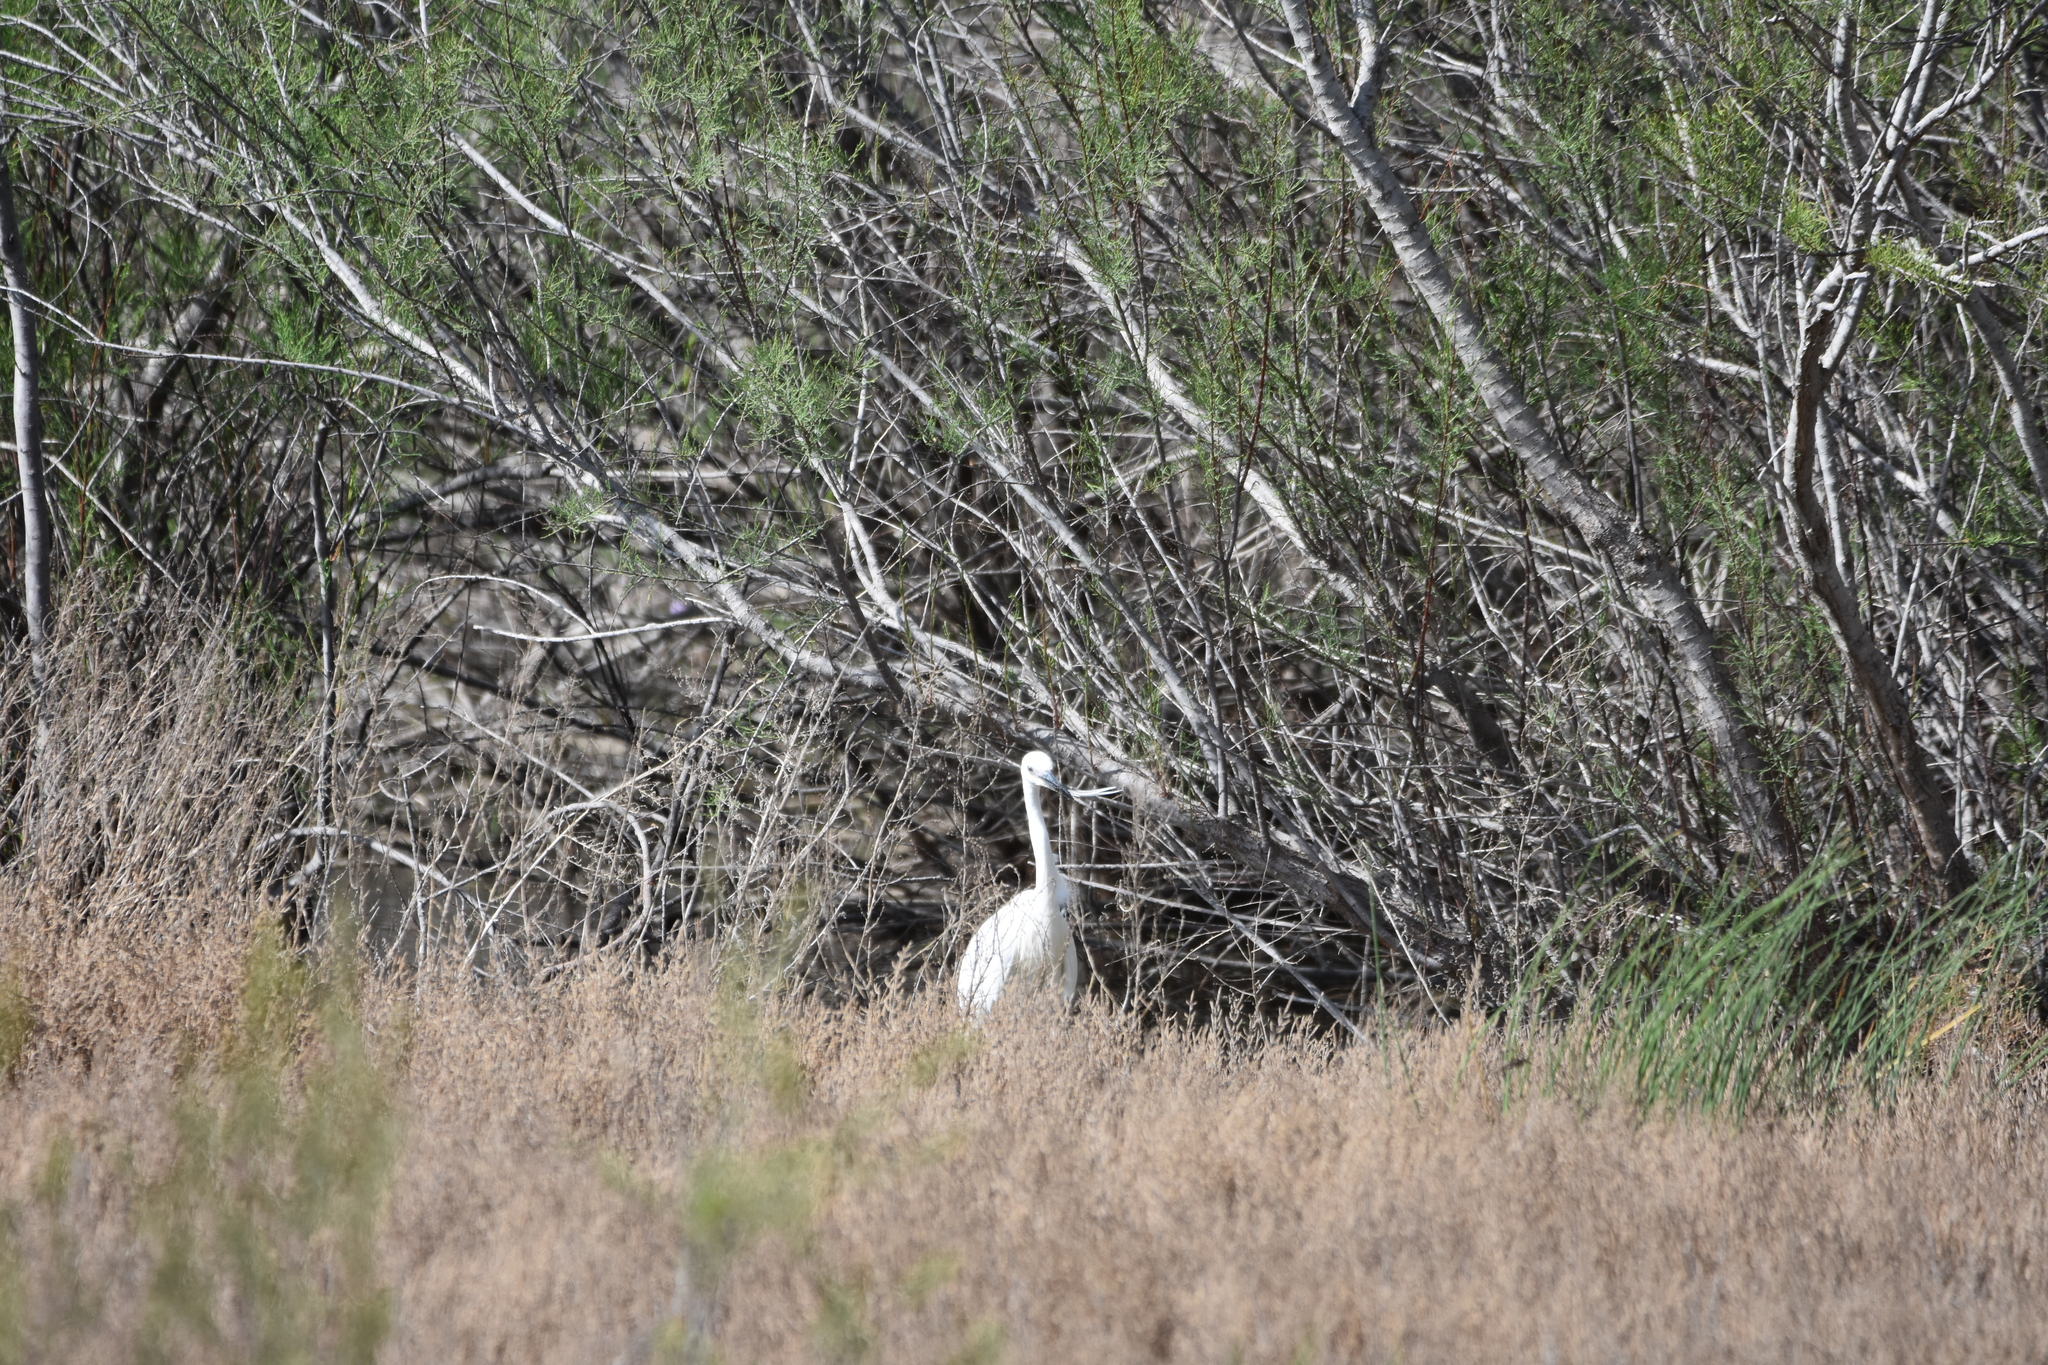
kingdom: Animalia
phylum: Chordata
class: Aves
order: Pelecaniformes
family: Ardeidae
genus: Egretta
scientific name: Egretta garzetta
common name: Little egret
